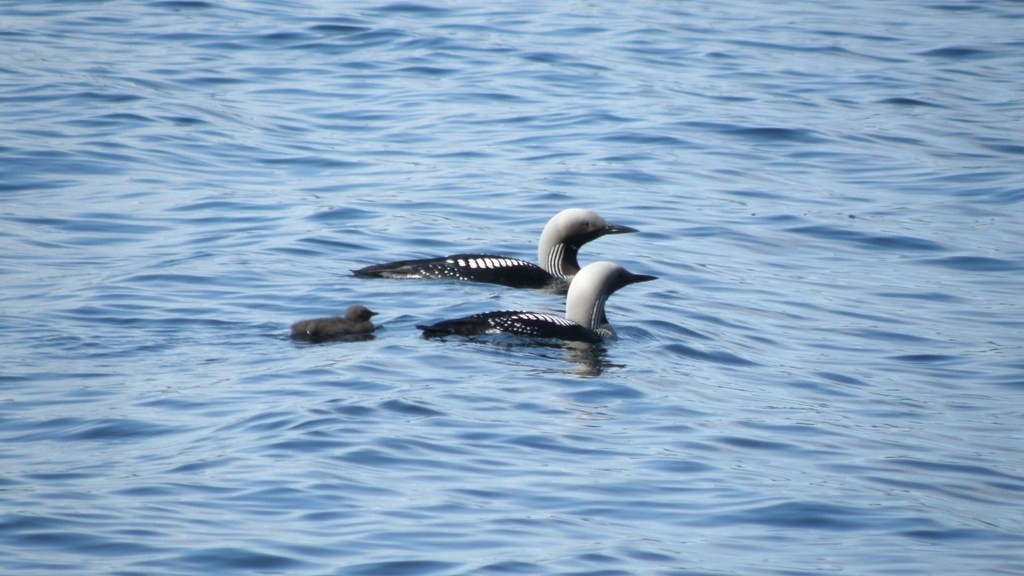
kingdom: Animalia
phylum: Chordata
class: Aves
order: Gaviiformes
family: Gaviidae
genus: Gavia
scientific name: Gavia arctica
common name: Black-throated loon
